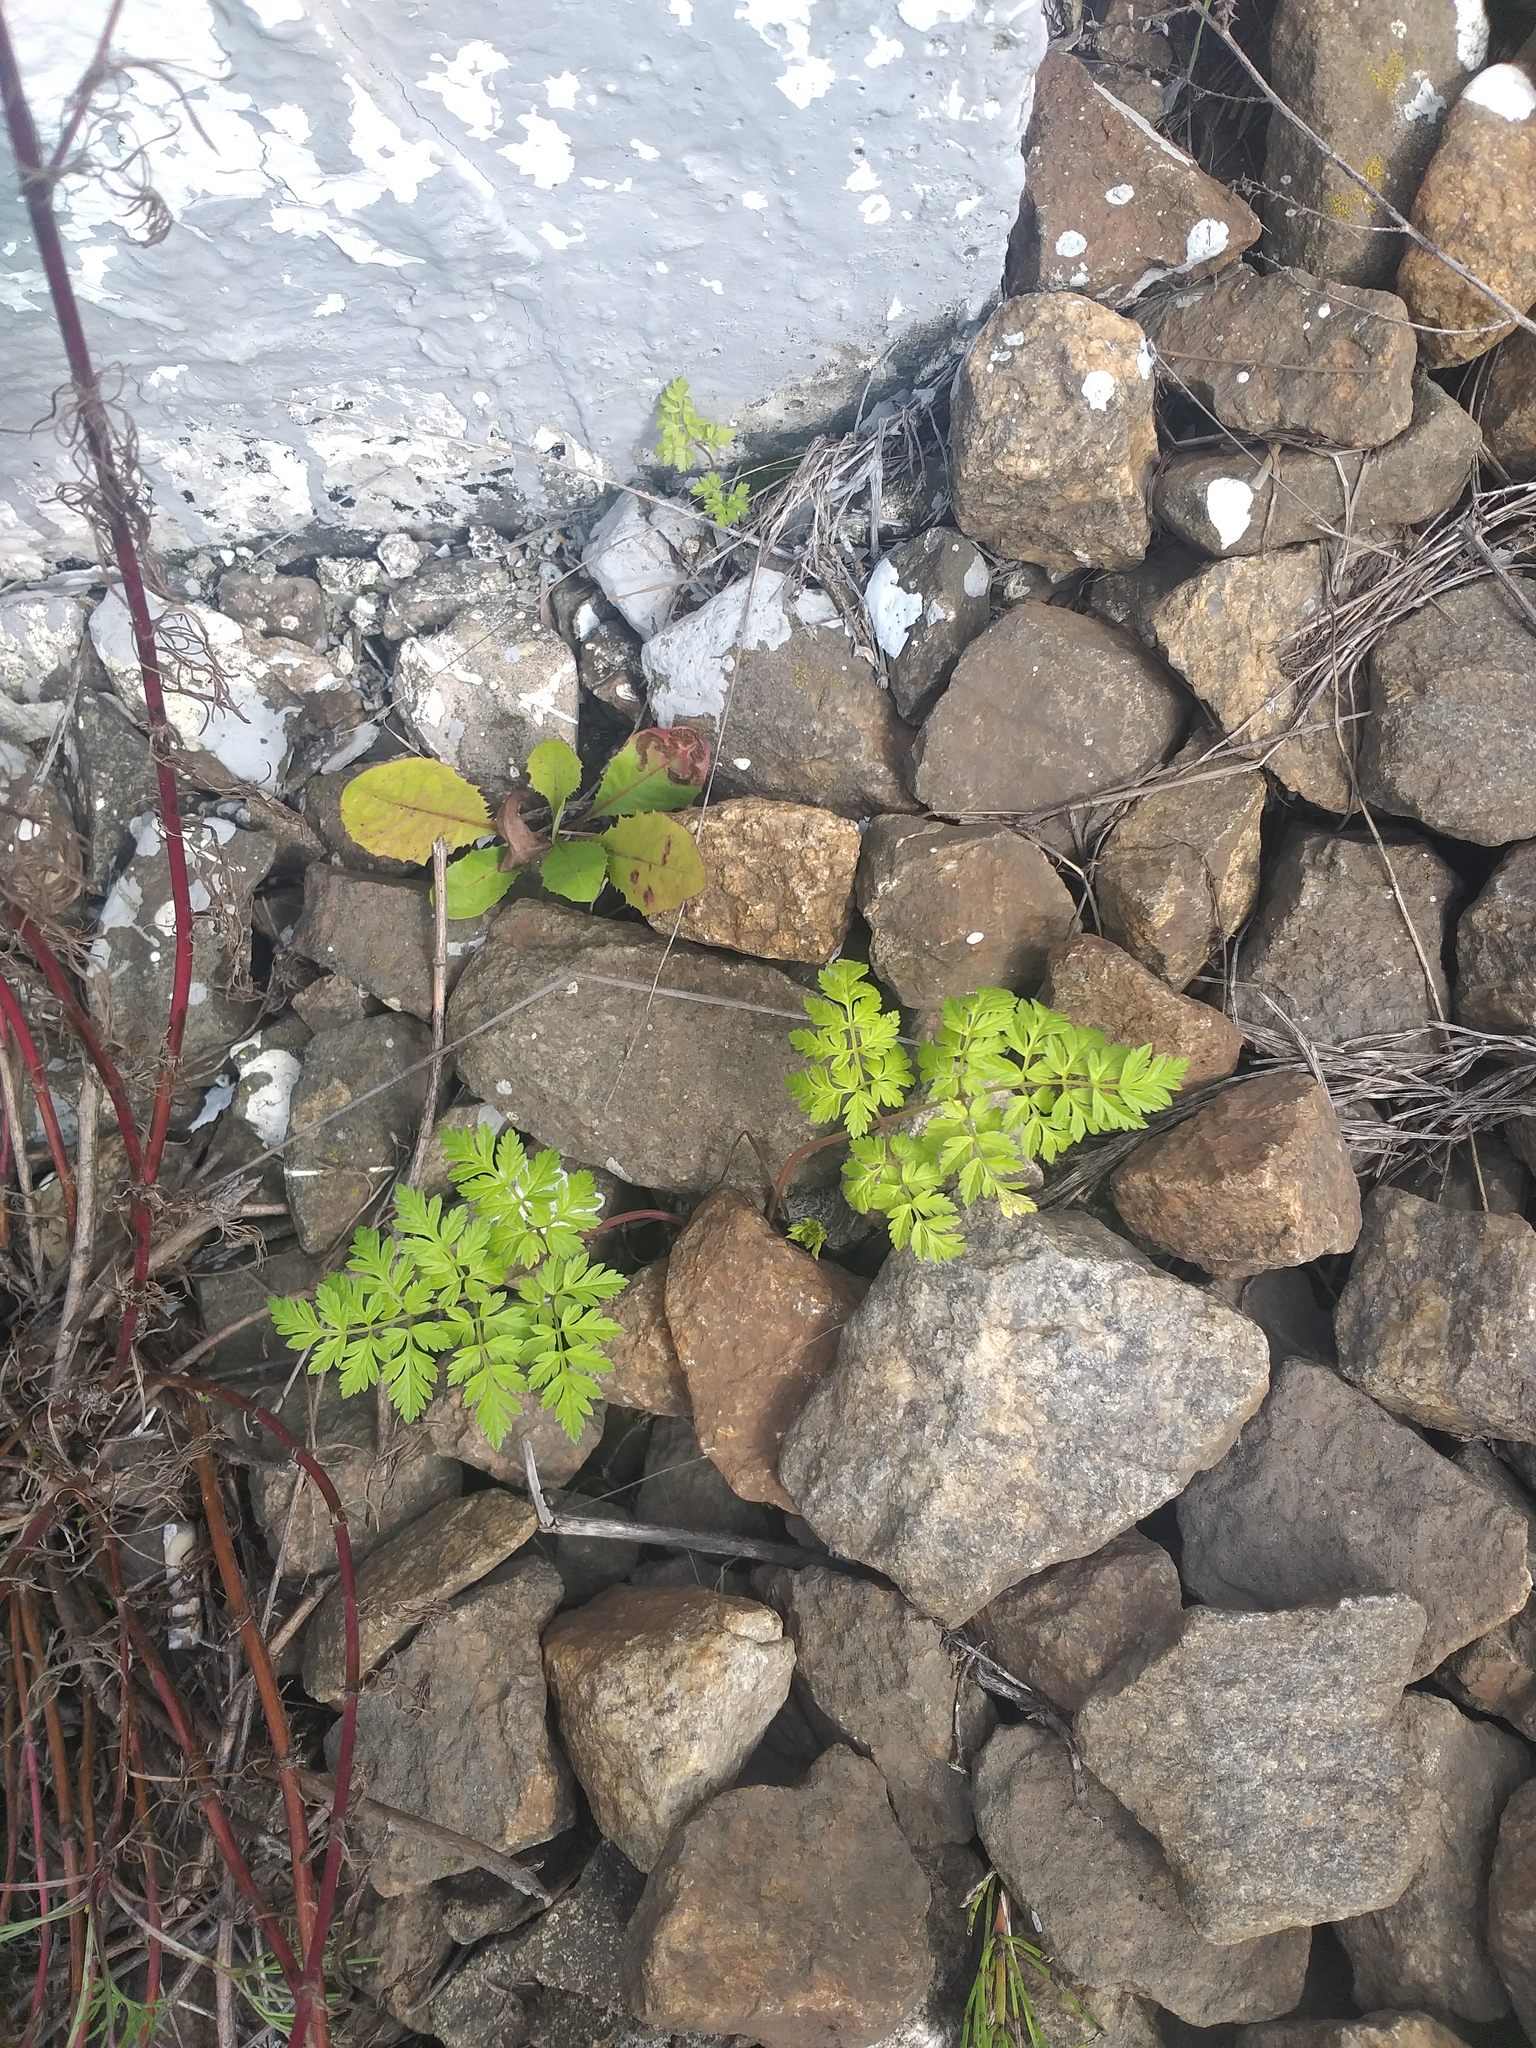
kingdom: Plantae
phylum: Tracheophyta
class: Magnoliopsida
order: Apiales
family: Apiaceae
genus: Anthriscus
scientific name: Anthriscus sylvestris
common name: Cow parsley
